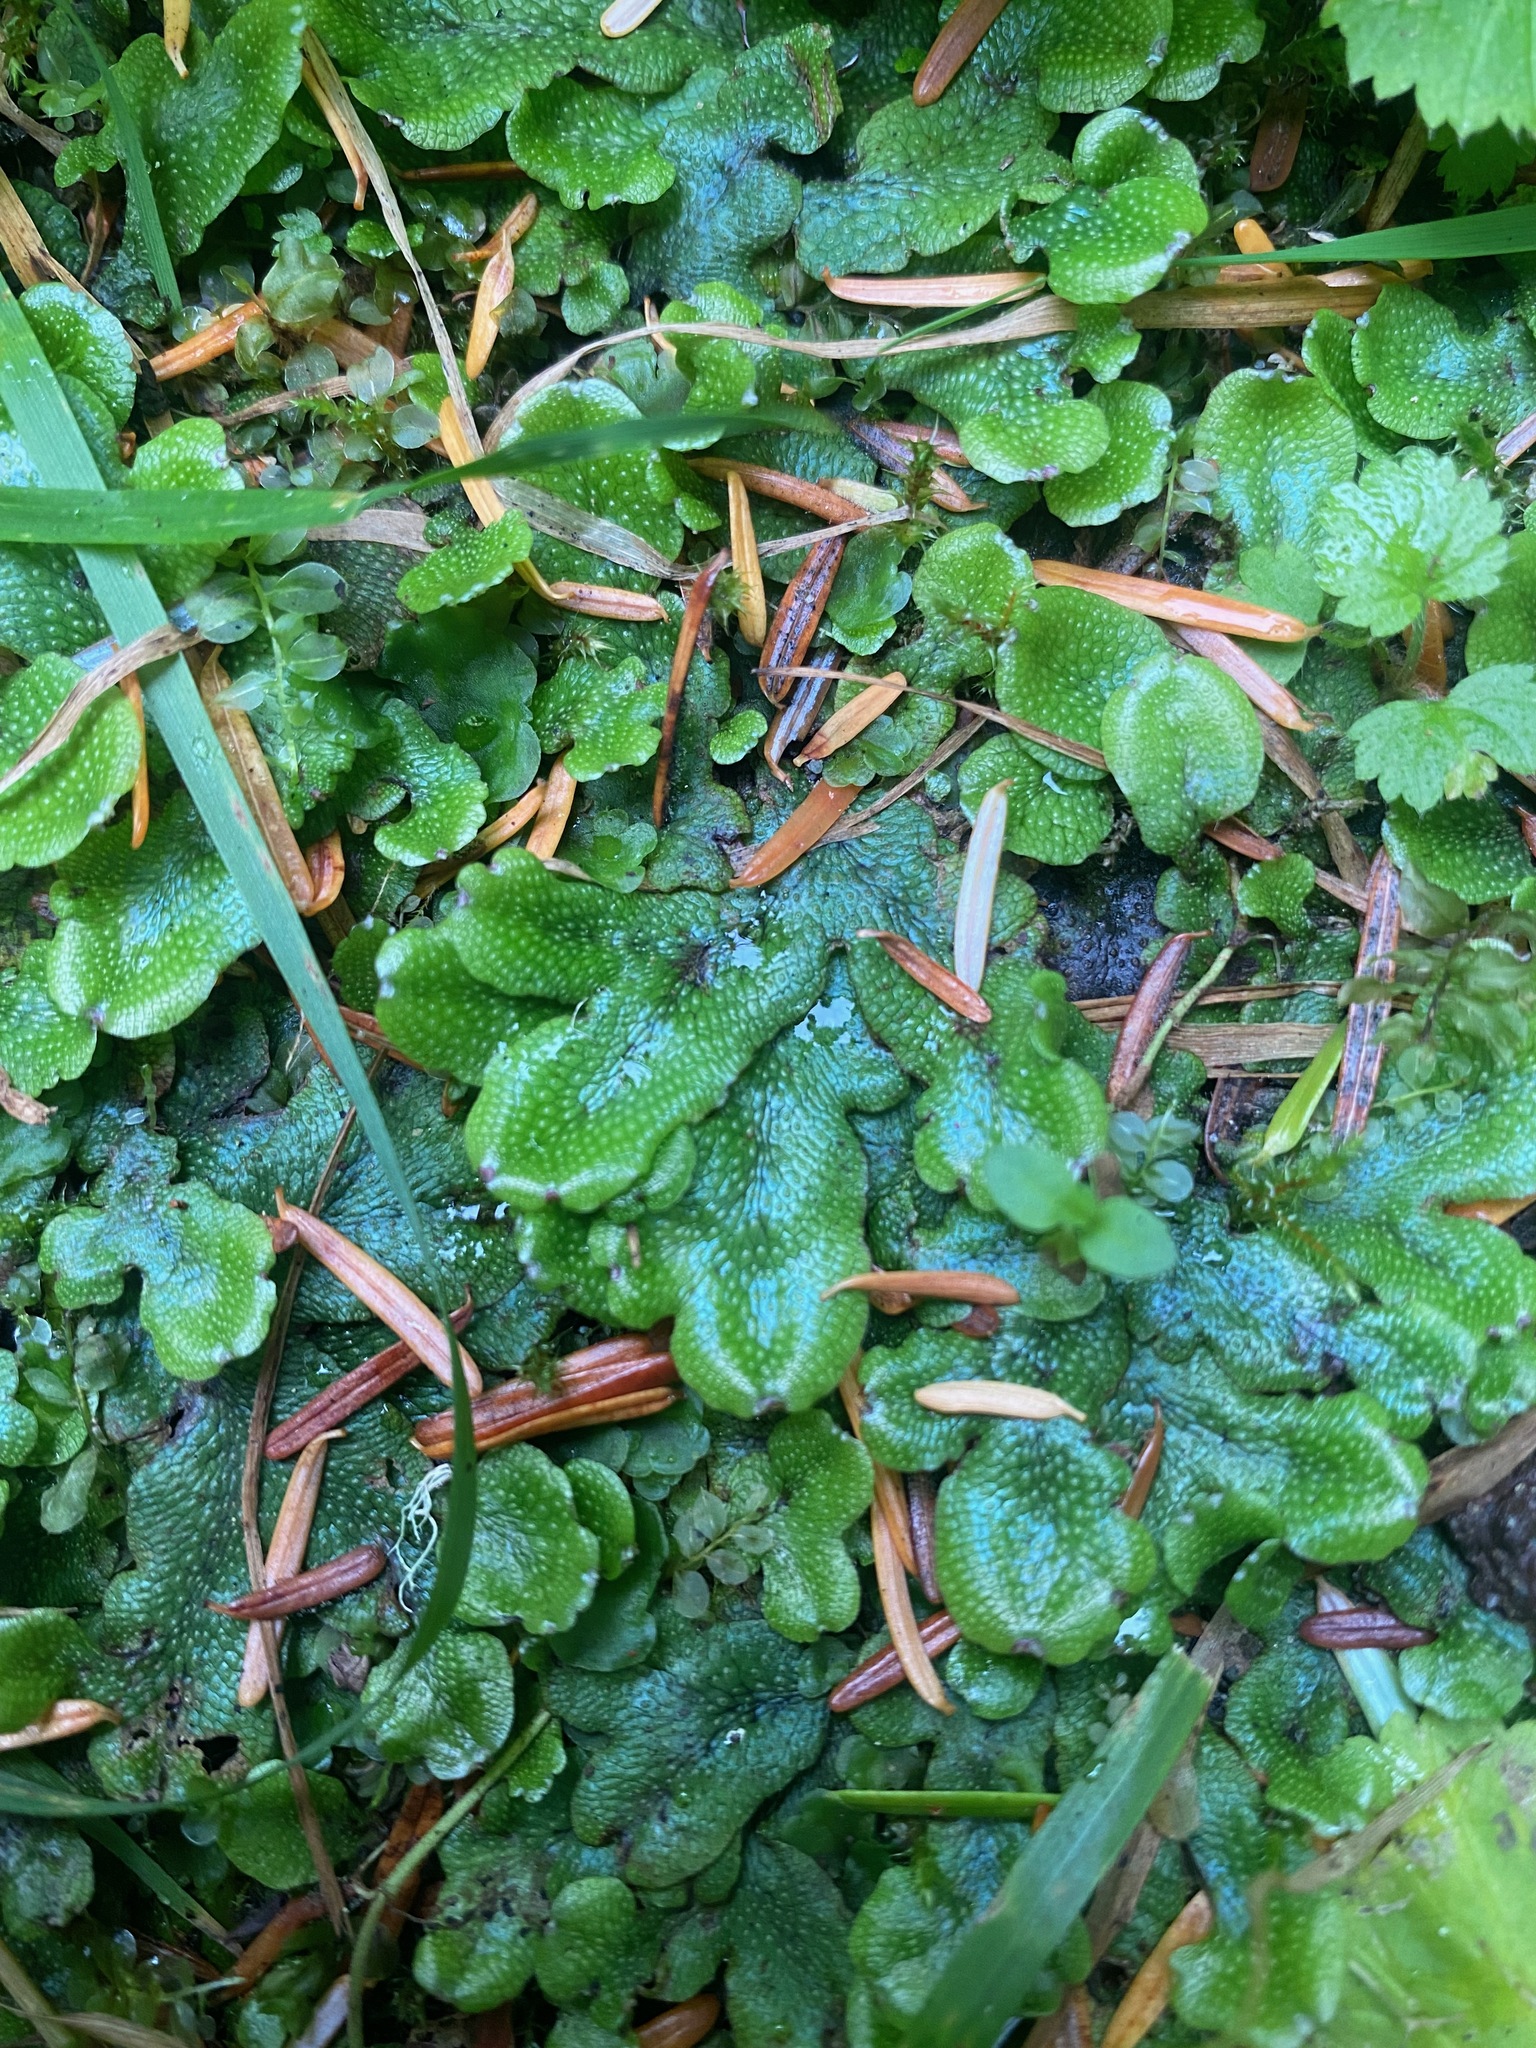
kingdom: Plantae
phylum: Marchantiophyta
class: Marchantiopsida
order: Marchantiales
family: Conocephalaceae
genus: Conocephalum
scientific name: Conocephalum salebrosum
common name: Cat-tongue liverwort
